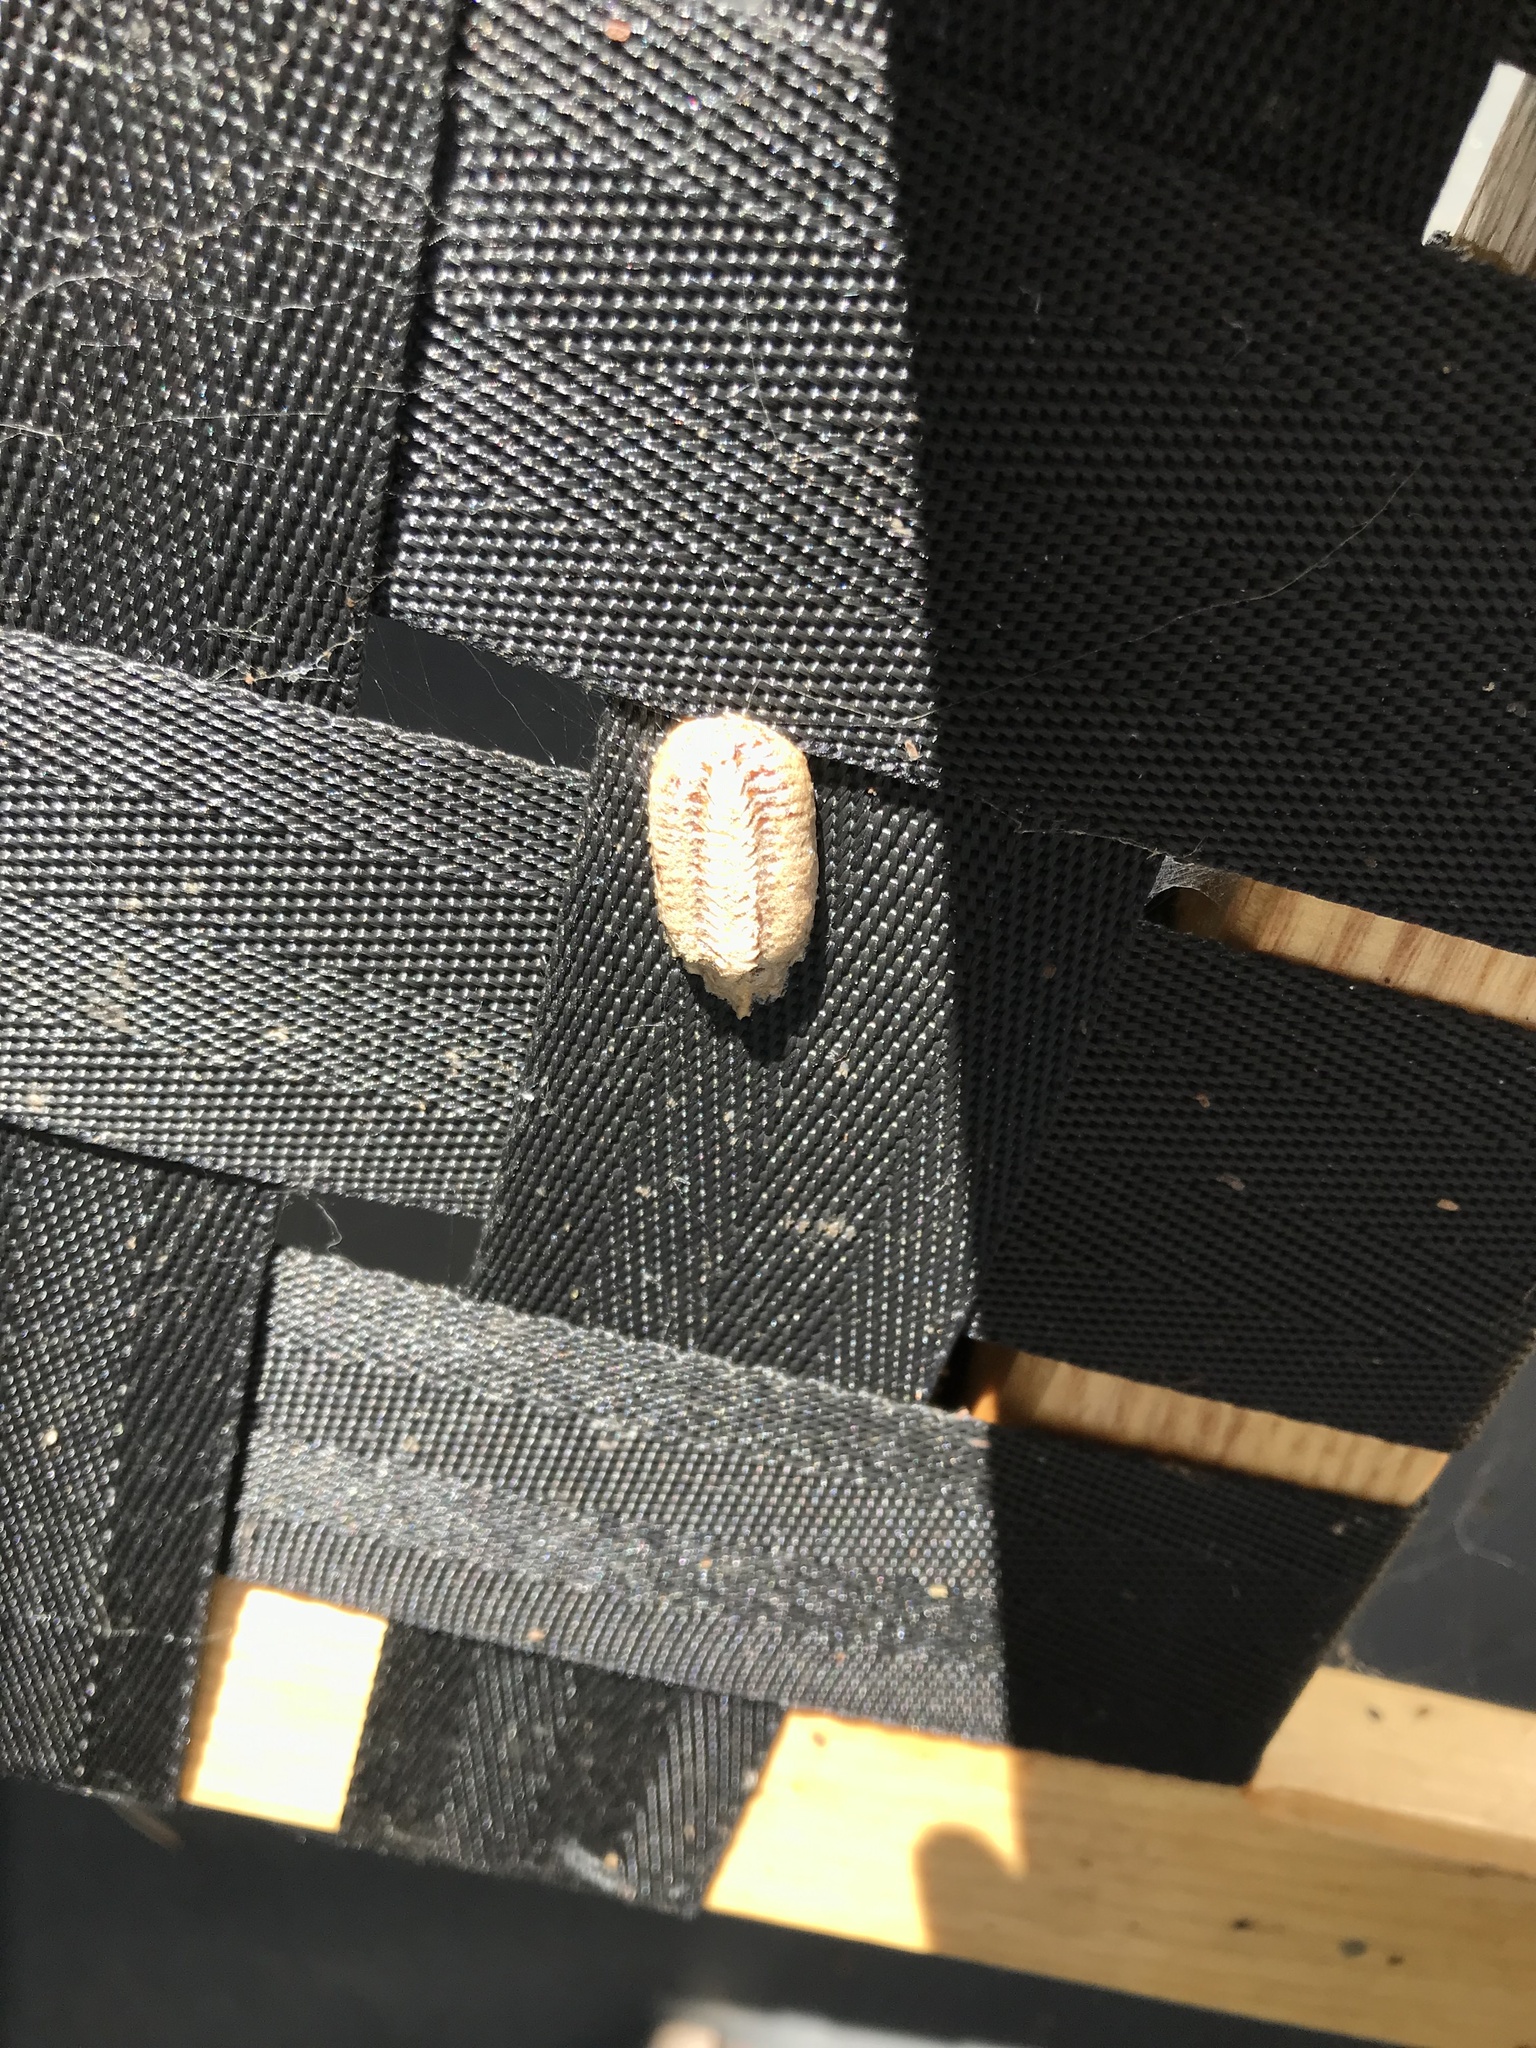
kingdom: Animalia
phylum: Arthropoda
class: Insecta
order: Mantodea
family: Mantidae
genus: Stagmomantis
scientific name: Stagmomantis carolina
